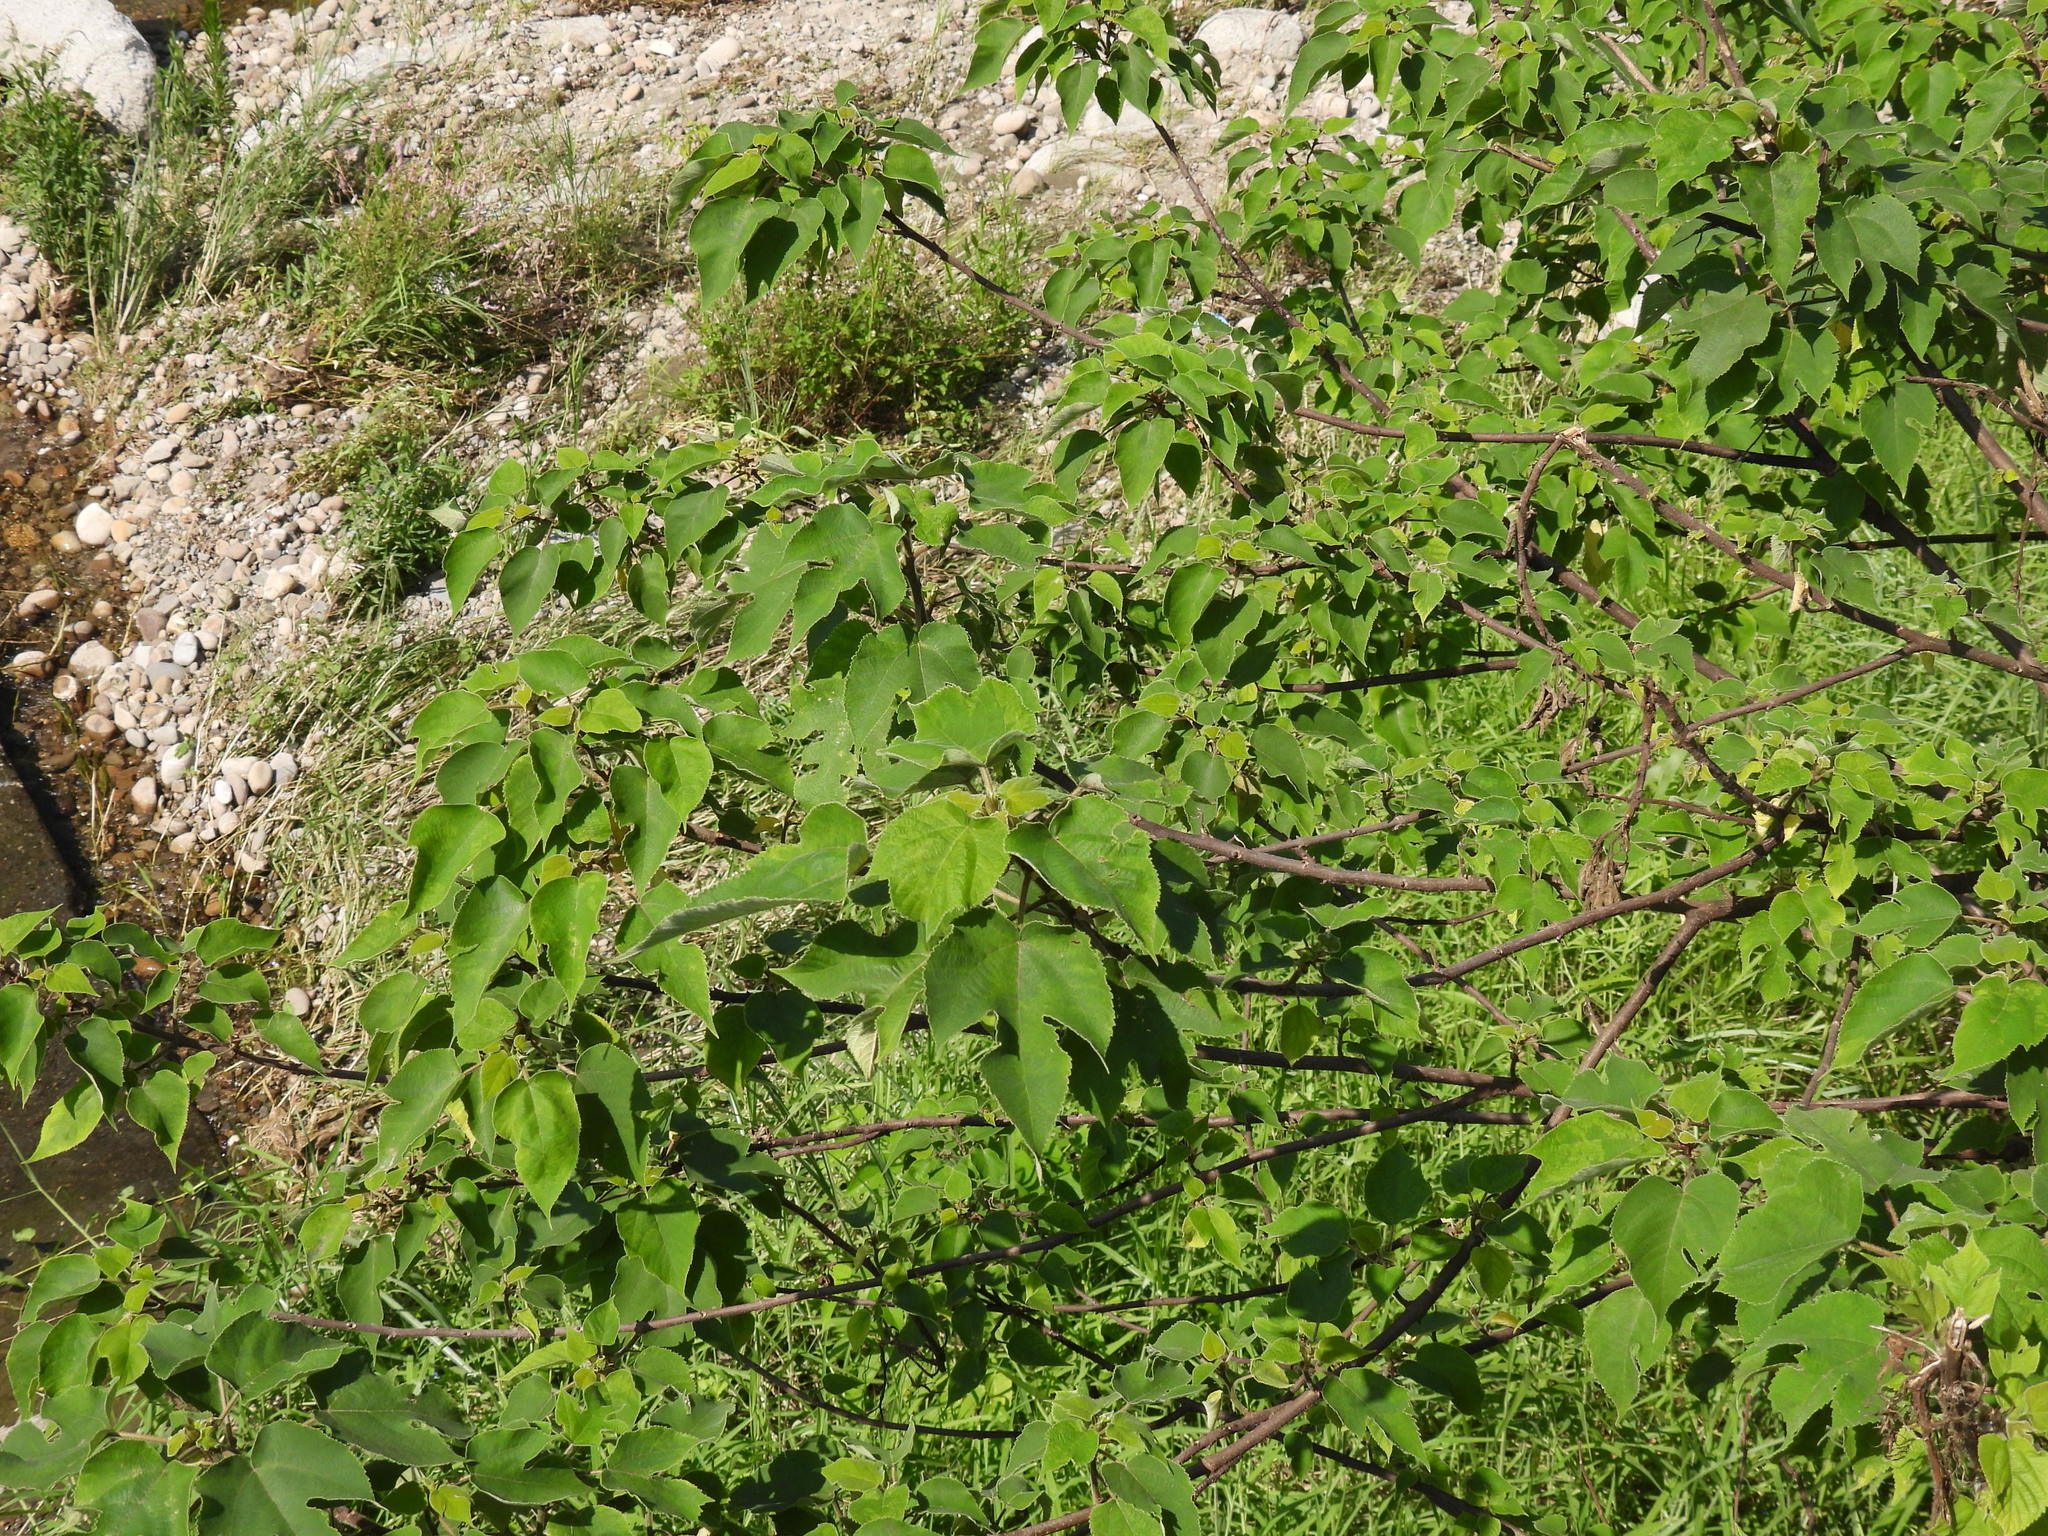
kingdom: Plantae
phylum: Tracheophyta
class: Magnoliopsida
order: Rosales
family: Moraceae
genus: Broussonetia
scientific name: Broussonetia papyrifera
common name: Paper mulberry
